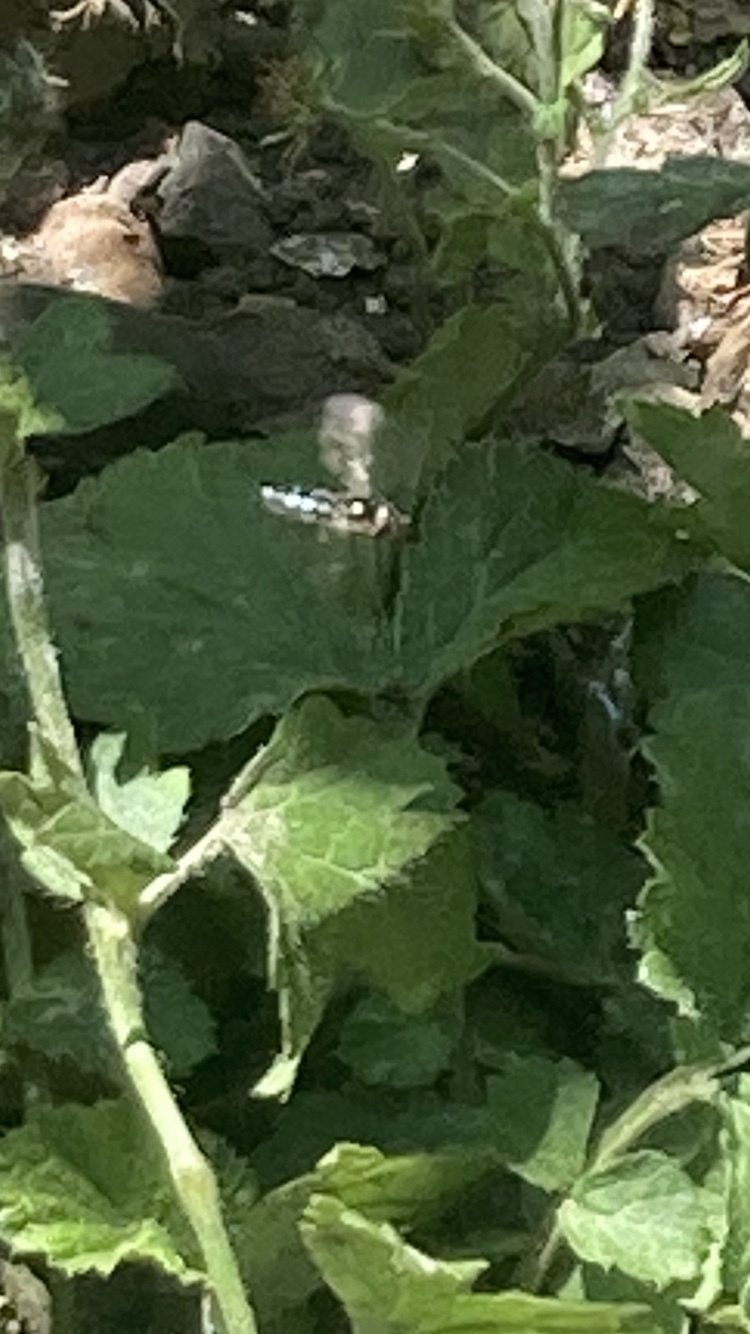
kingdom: Animalia
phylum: Arthropoda
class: Insecta
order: Diptera
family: Syrphidae
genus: Platycheirus
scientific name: Platycheirus
